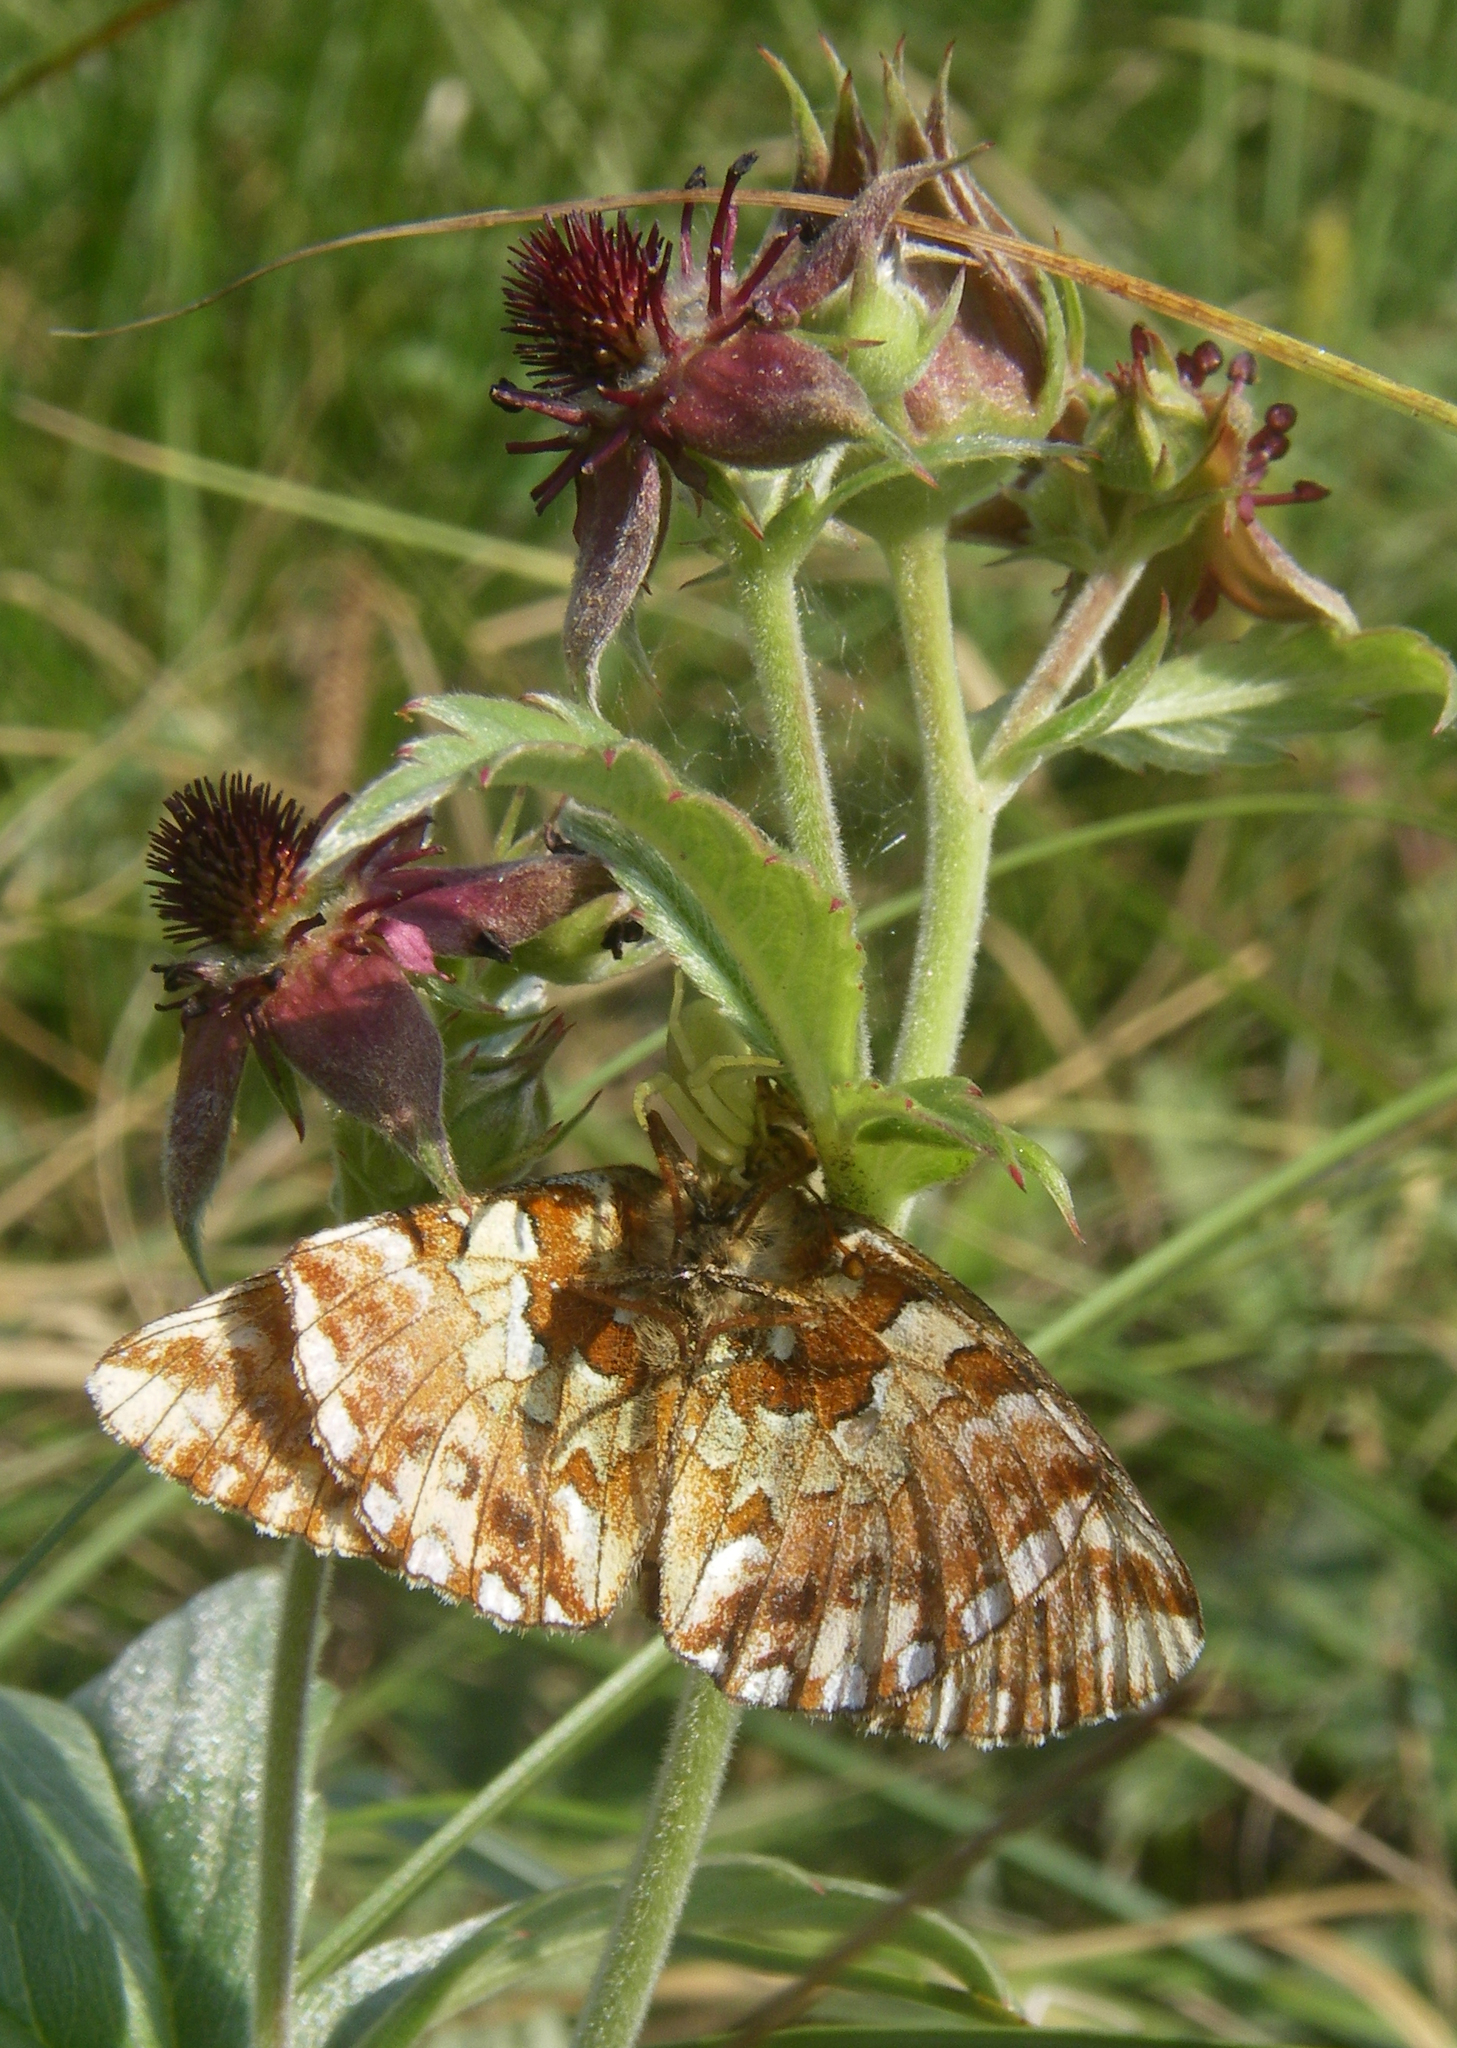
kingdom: Plantae
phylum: Tracheophyta
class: Magnoliopsida
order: Rosales
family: Rosaceae
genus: Comarum
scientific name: Comarum palustre
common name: Marsh cinquefoil
